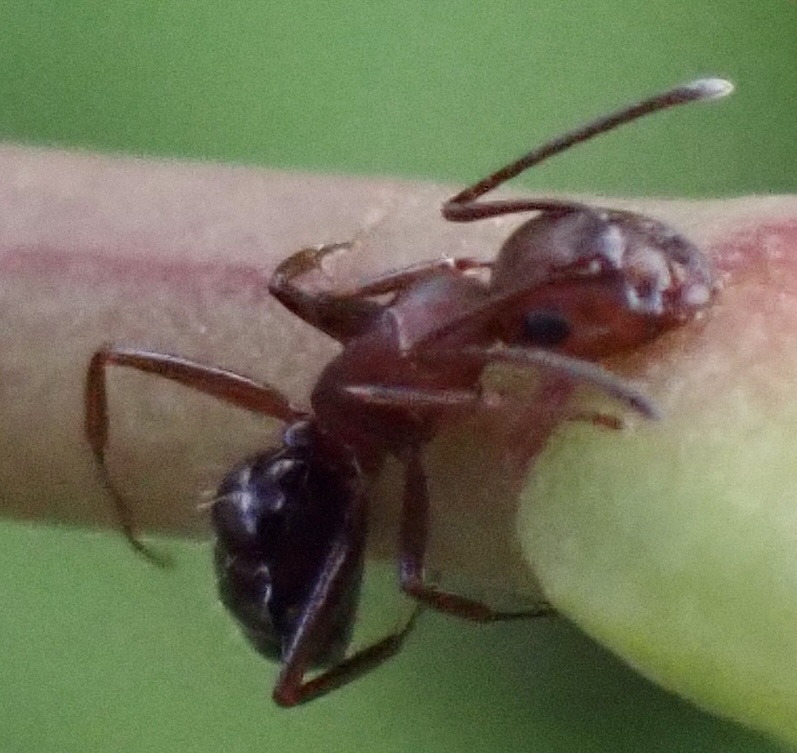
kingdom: Animalia
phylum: Arthropoda
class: Insecta
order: Hymenoptera
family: Formicidae
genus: Camponotus
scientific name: Camponotus decipiens
